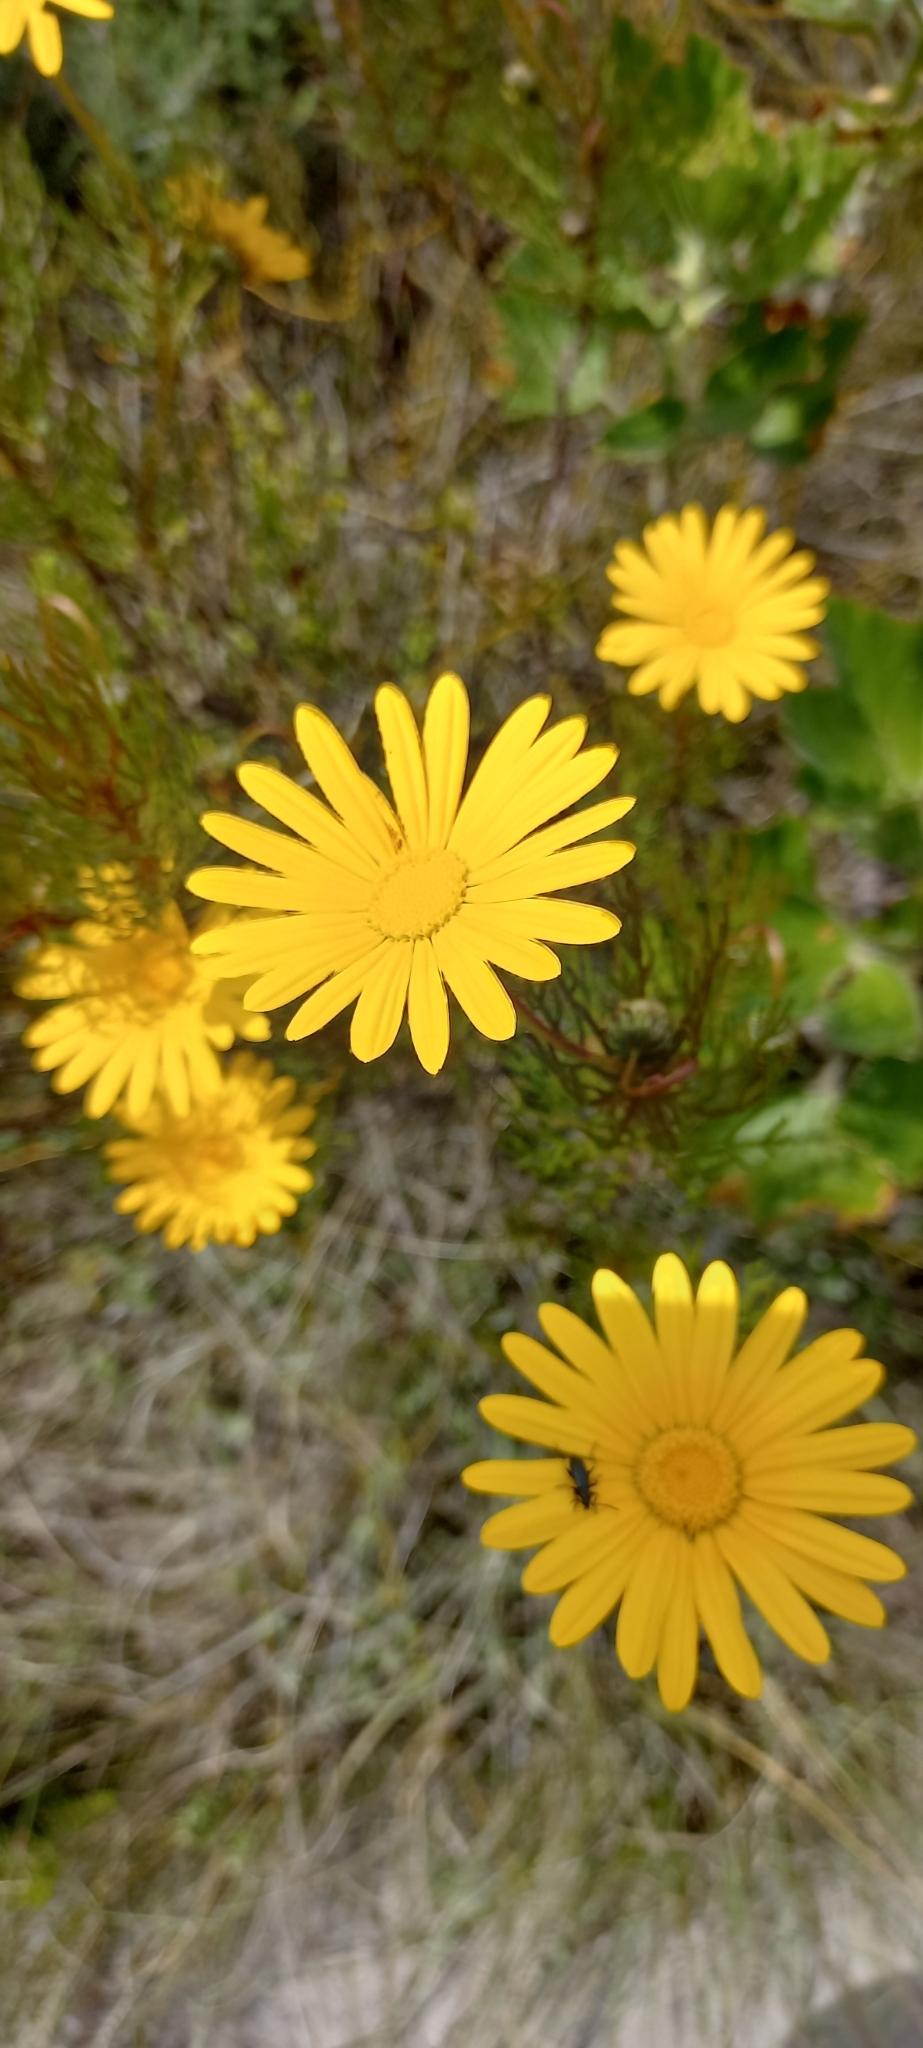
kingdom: Plantae
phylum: Tracheophyta
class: Magnoliopsida
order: Asterales
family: Asteraceae
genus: Ursinia
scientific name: Ursinia paleacea
